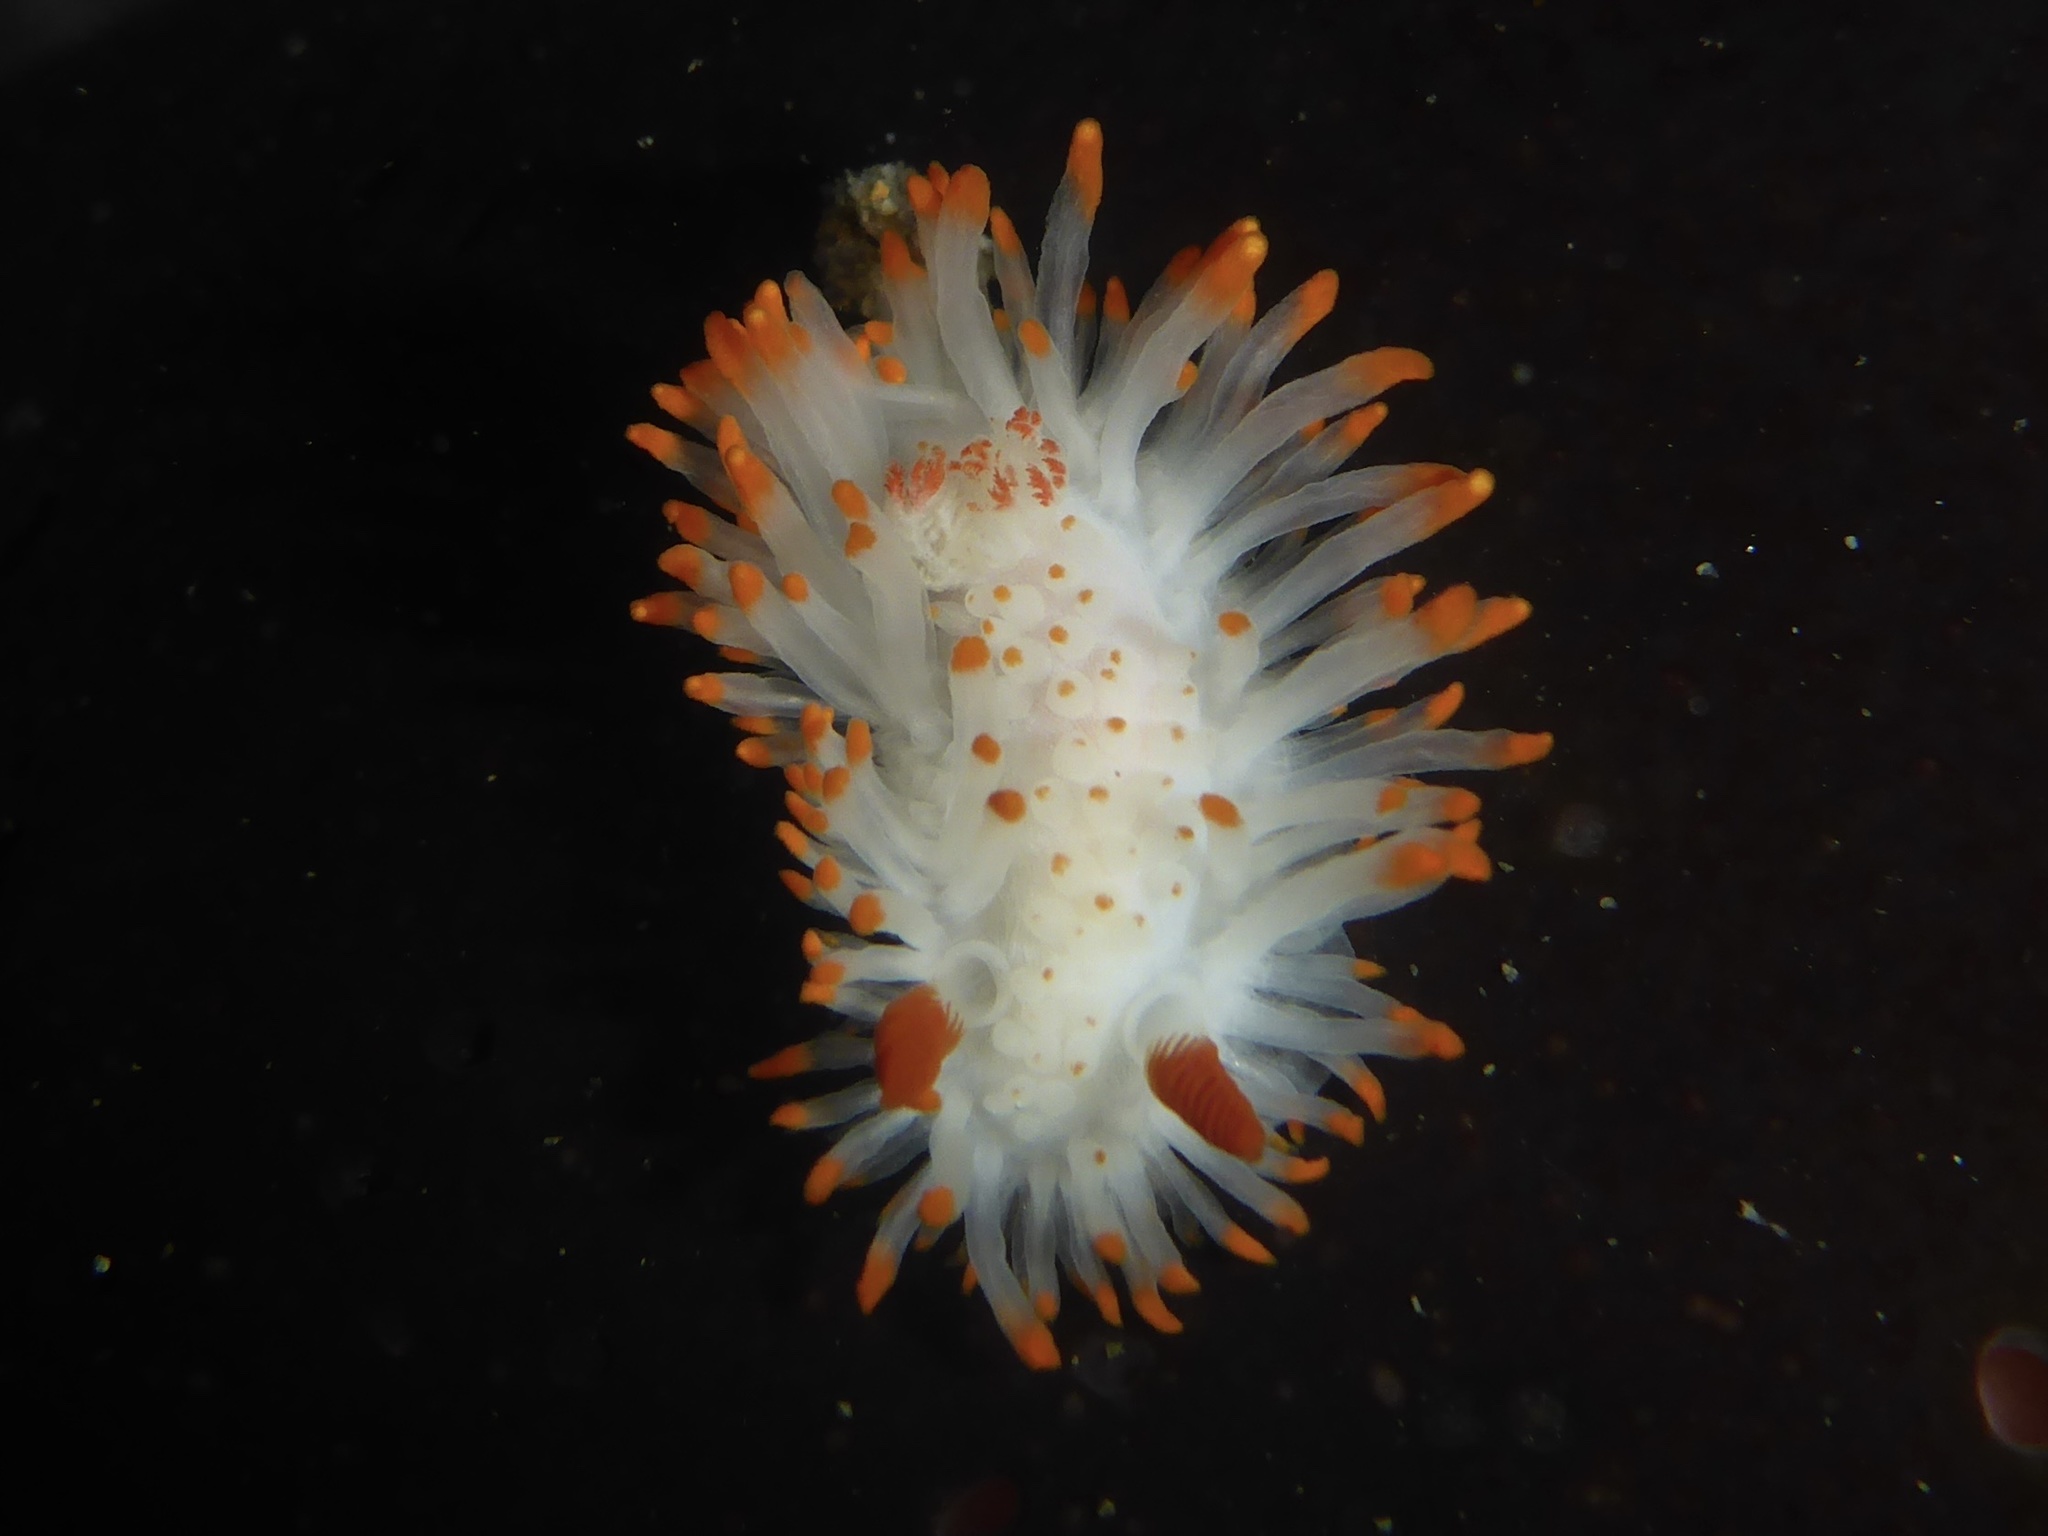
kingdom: Animalia
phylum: Mollusca
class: Gastropoda
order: Nudibranchia
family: Polyceridae
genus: Limacia
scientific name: Limacia cockerelli
